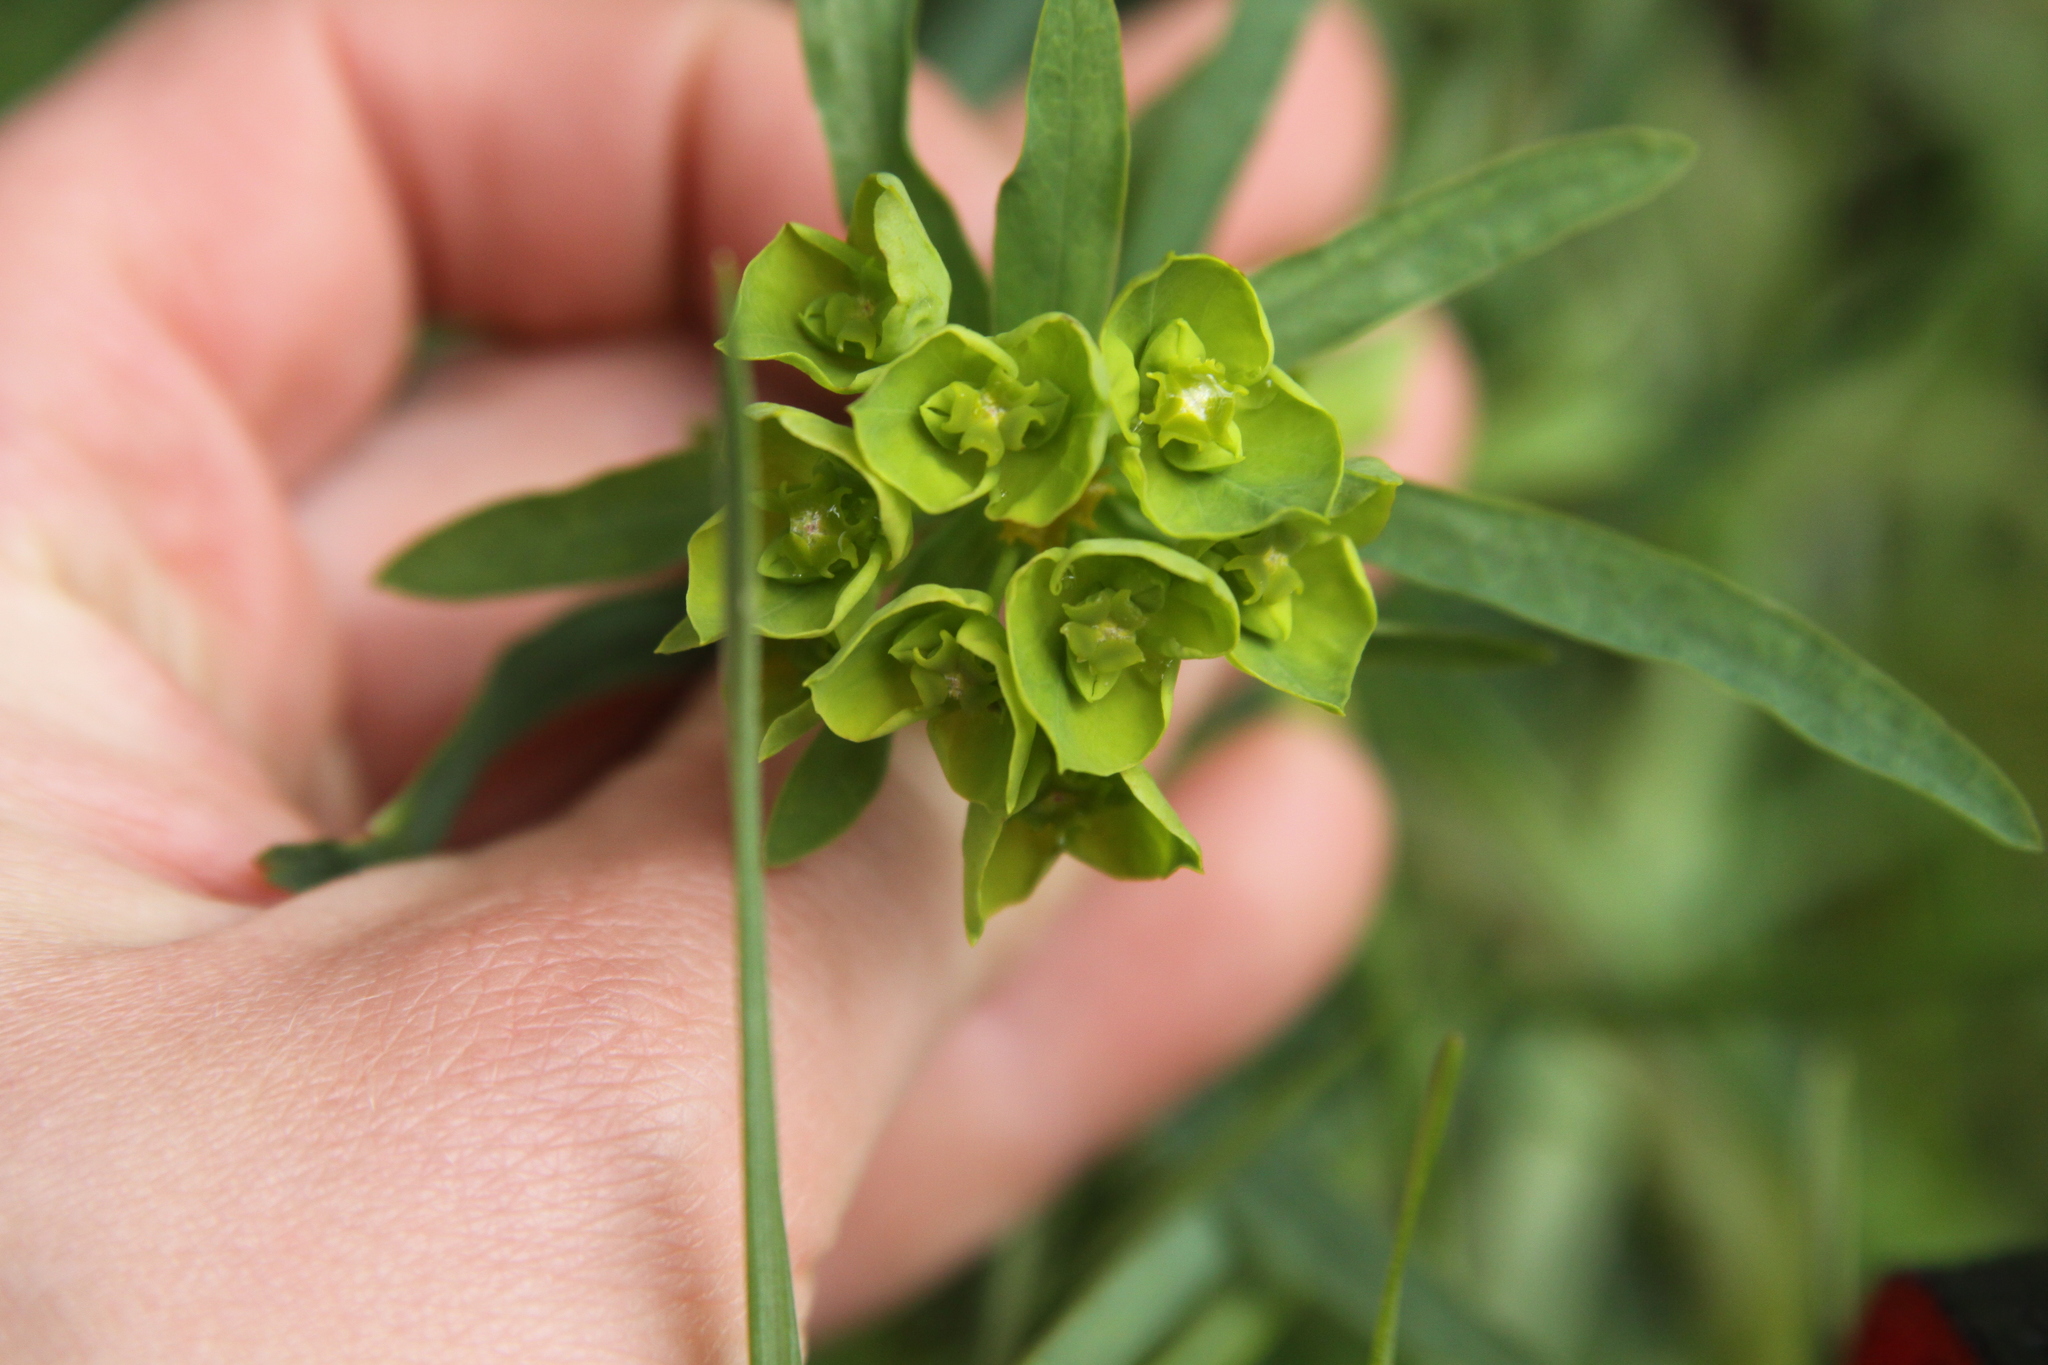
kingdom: Plantae
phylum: Tracheophyta
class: Magnoliopsida
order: Malpighiales
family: Euphorbiaceae
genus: Euphorbia
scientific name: Euphorbia virgata
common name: Leafy spurge
